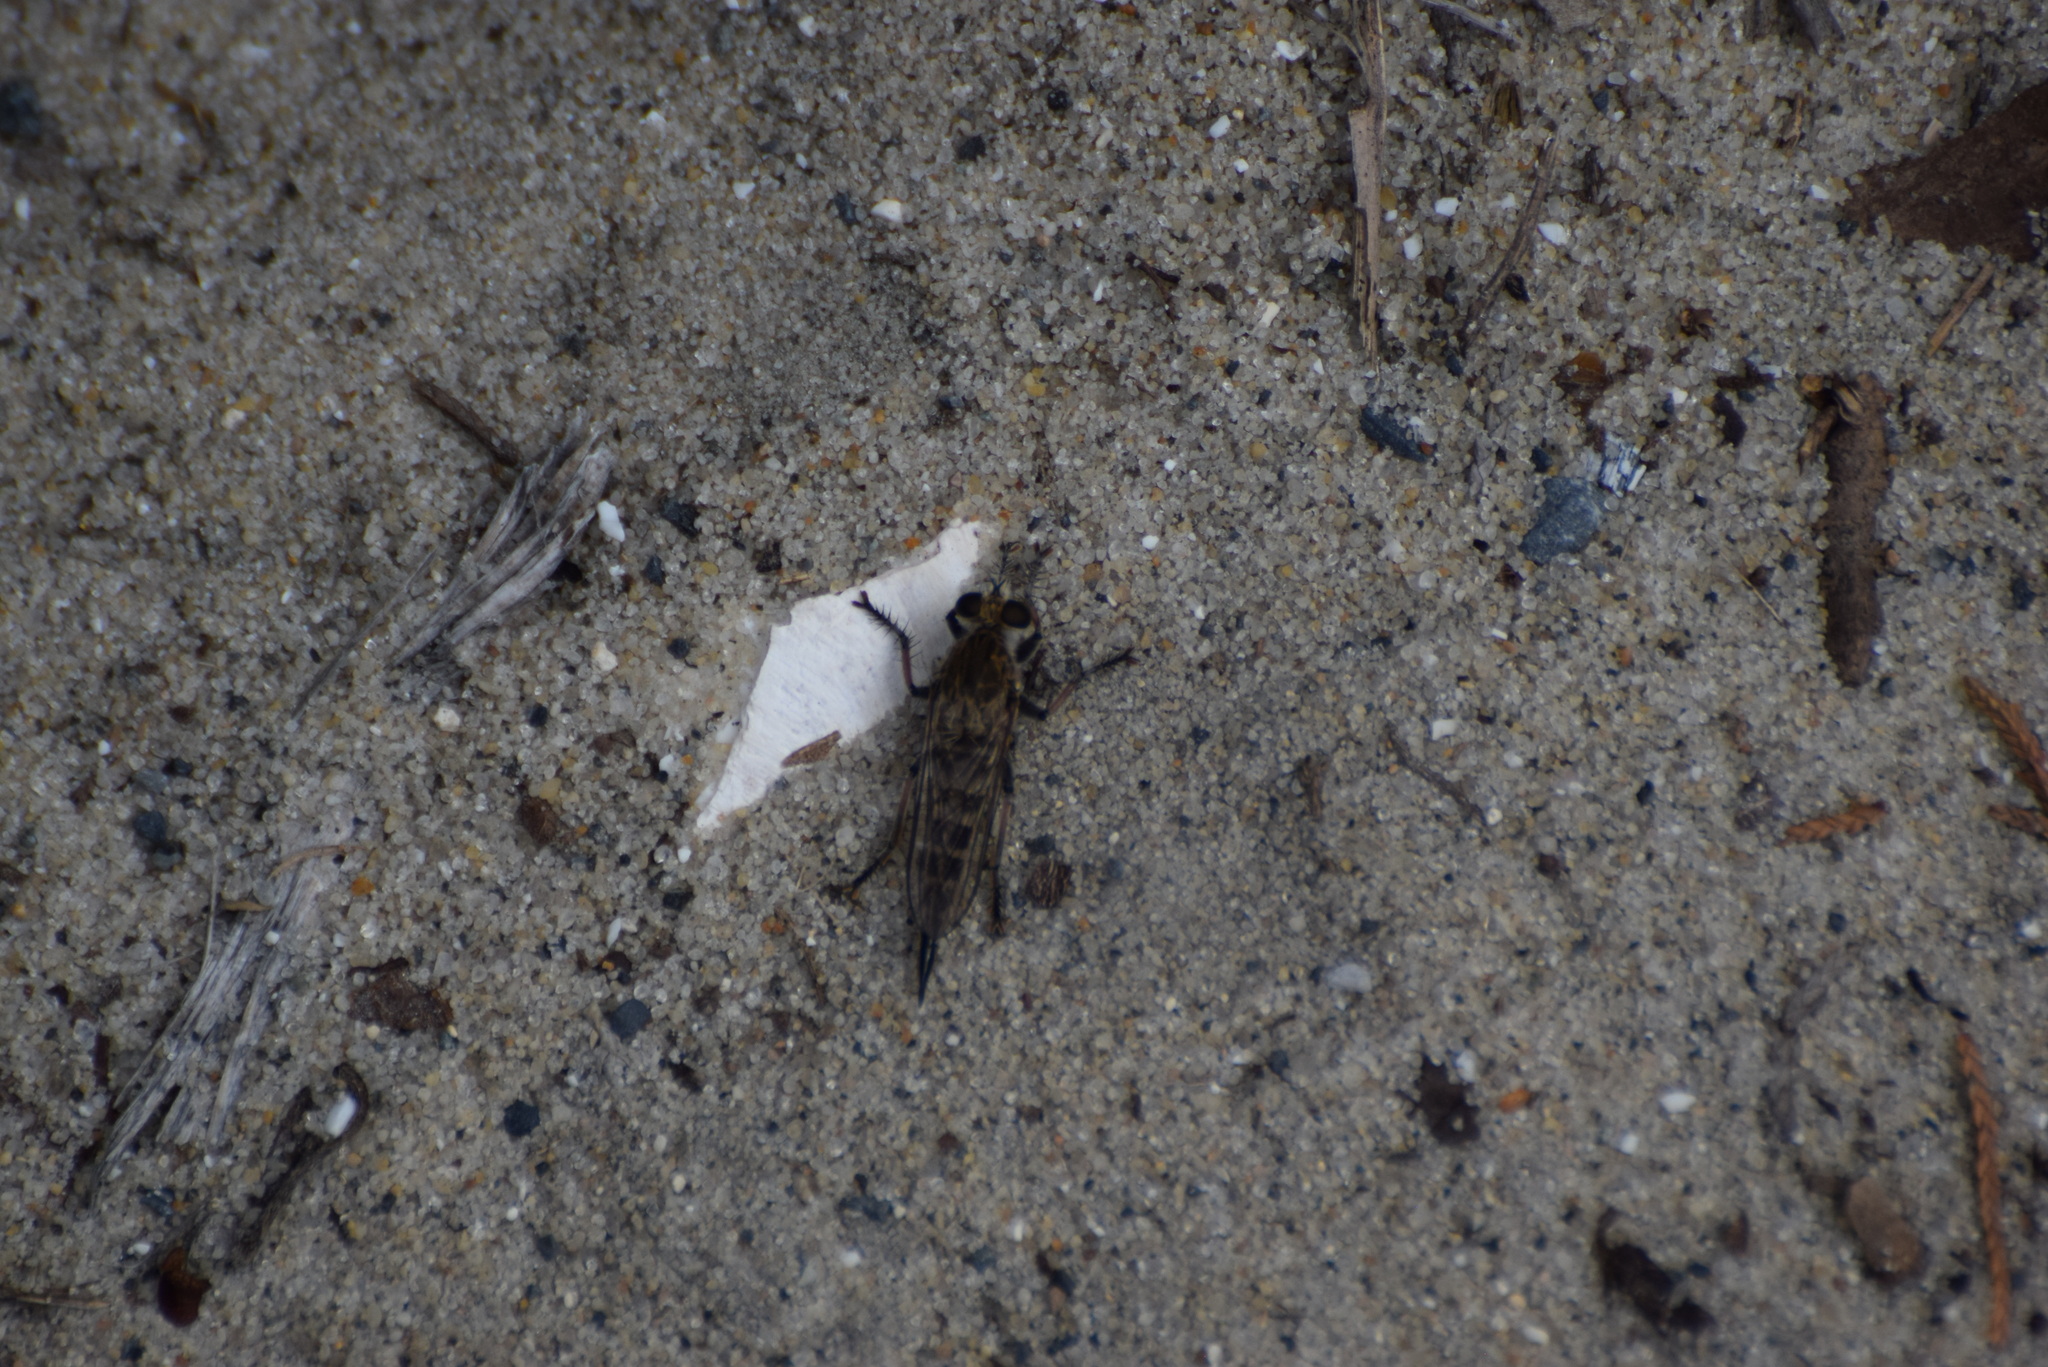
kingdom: Animalia
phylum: Arthropoda
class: Insecta
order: Diptera
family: Asilidae
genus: Efferia
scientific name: Efferia albibarbis
